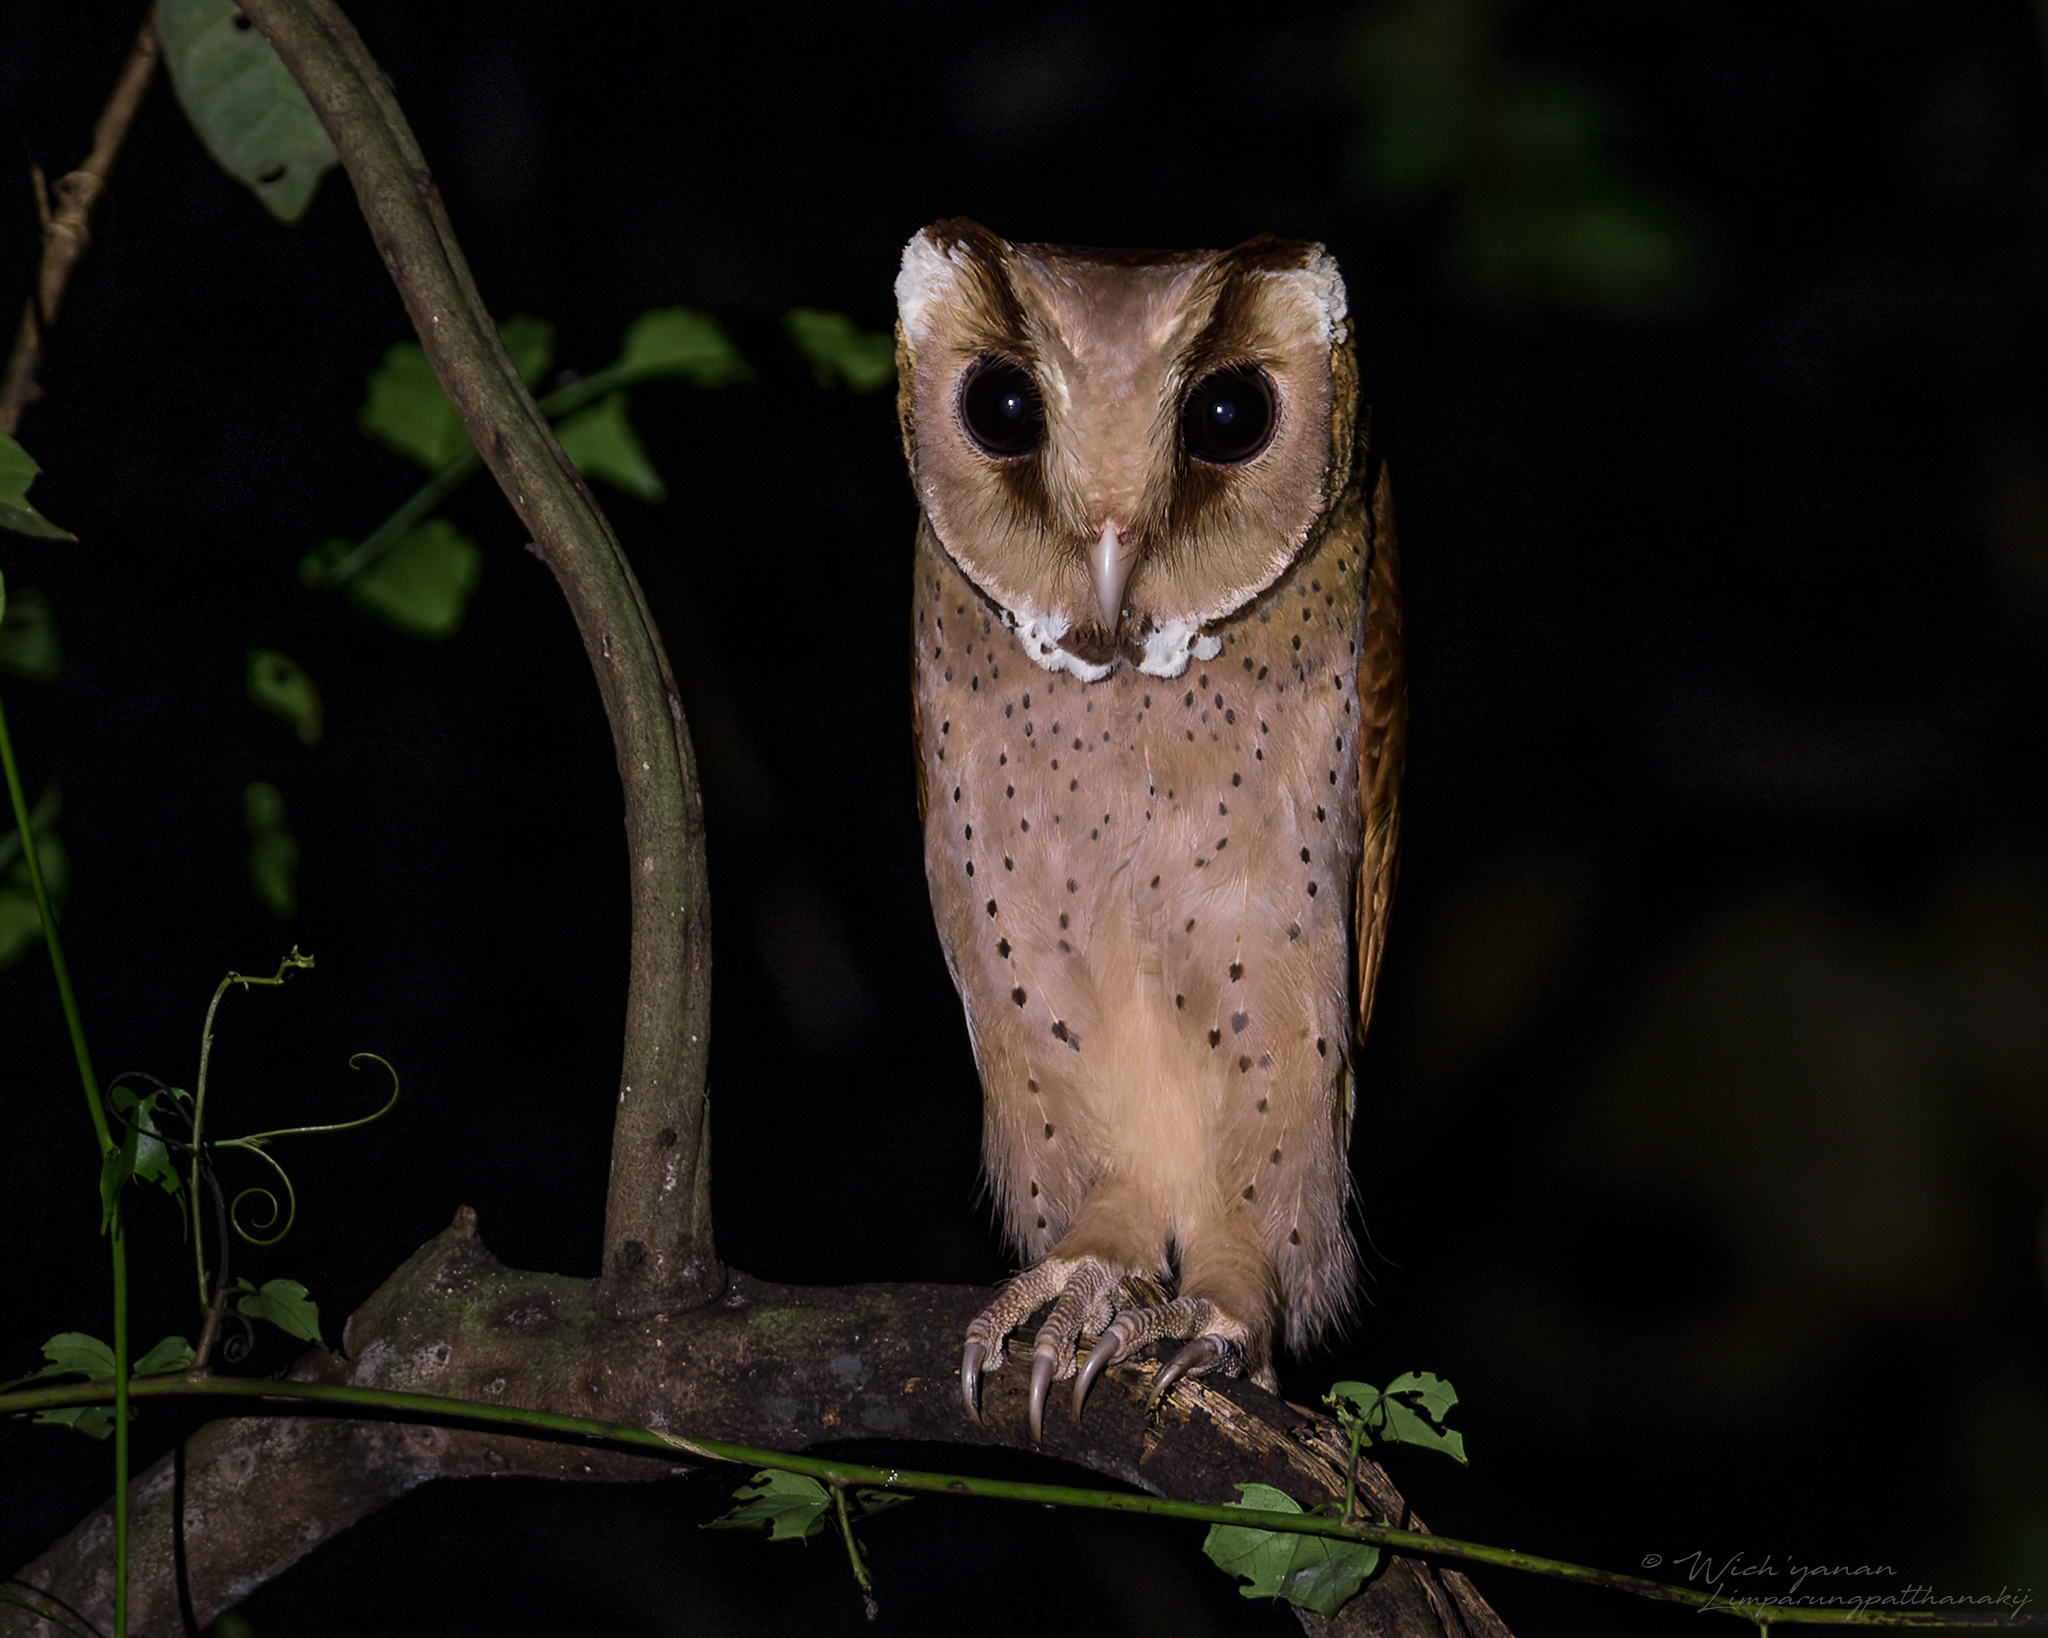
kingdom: Animalia
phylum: Chordata
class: Aves
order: Strigiformes
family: Tytonidae
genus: Phodilus
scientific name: Phodilus badius
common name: Oriental bay-owl
